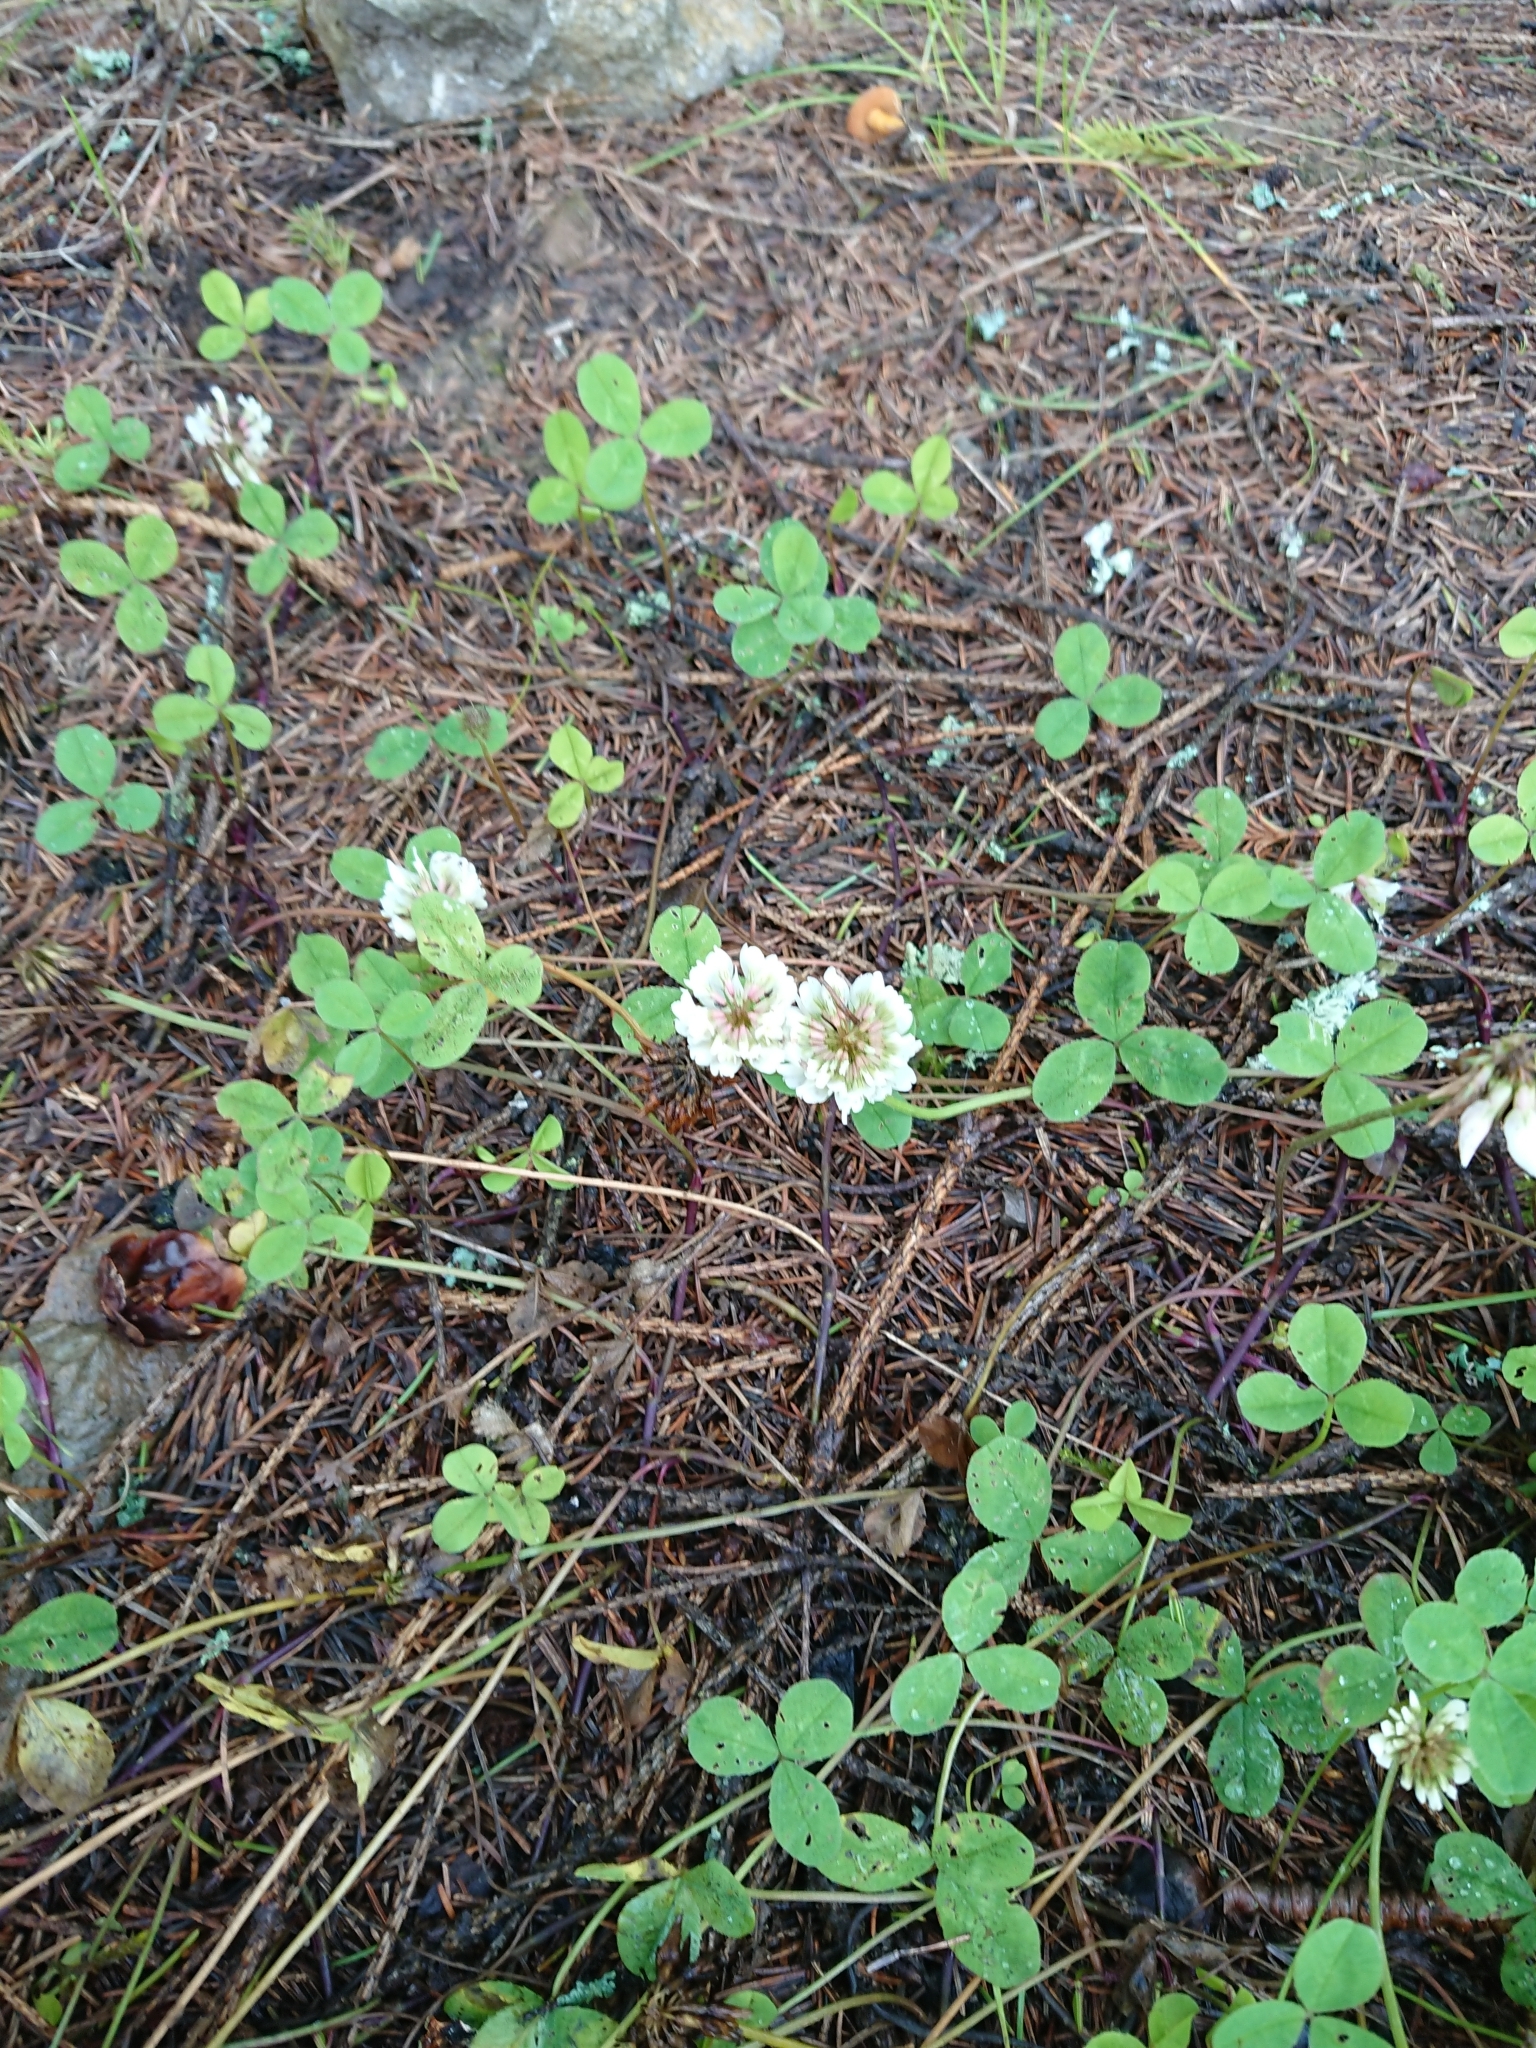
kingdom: Plantae
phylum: Tracheophyta
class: Magnoliopsida
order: Fabales
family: Fabaceae
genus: Trifolium
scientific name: Trifolium repens
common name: White clover
